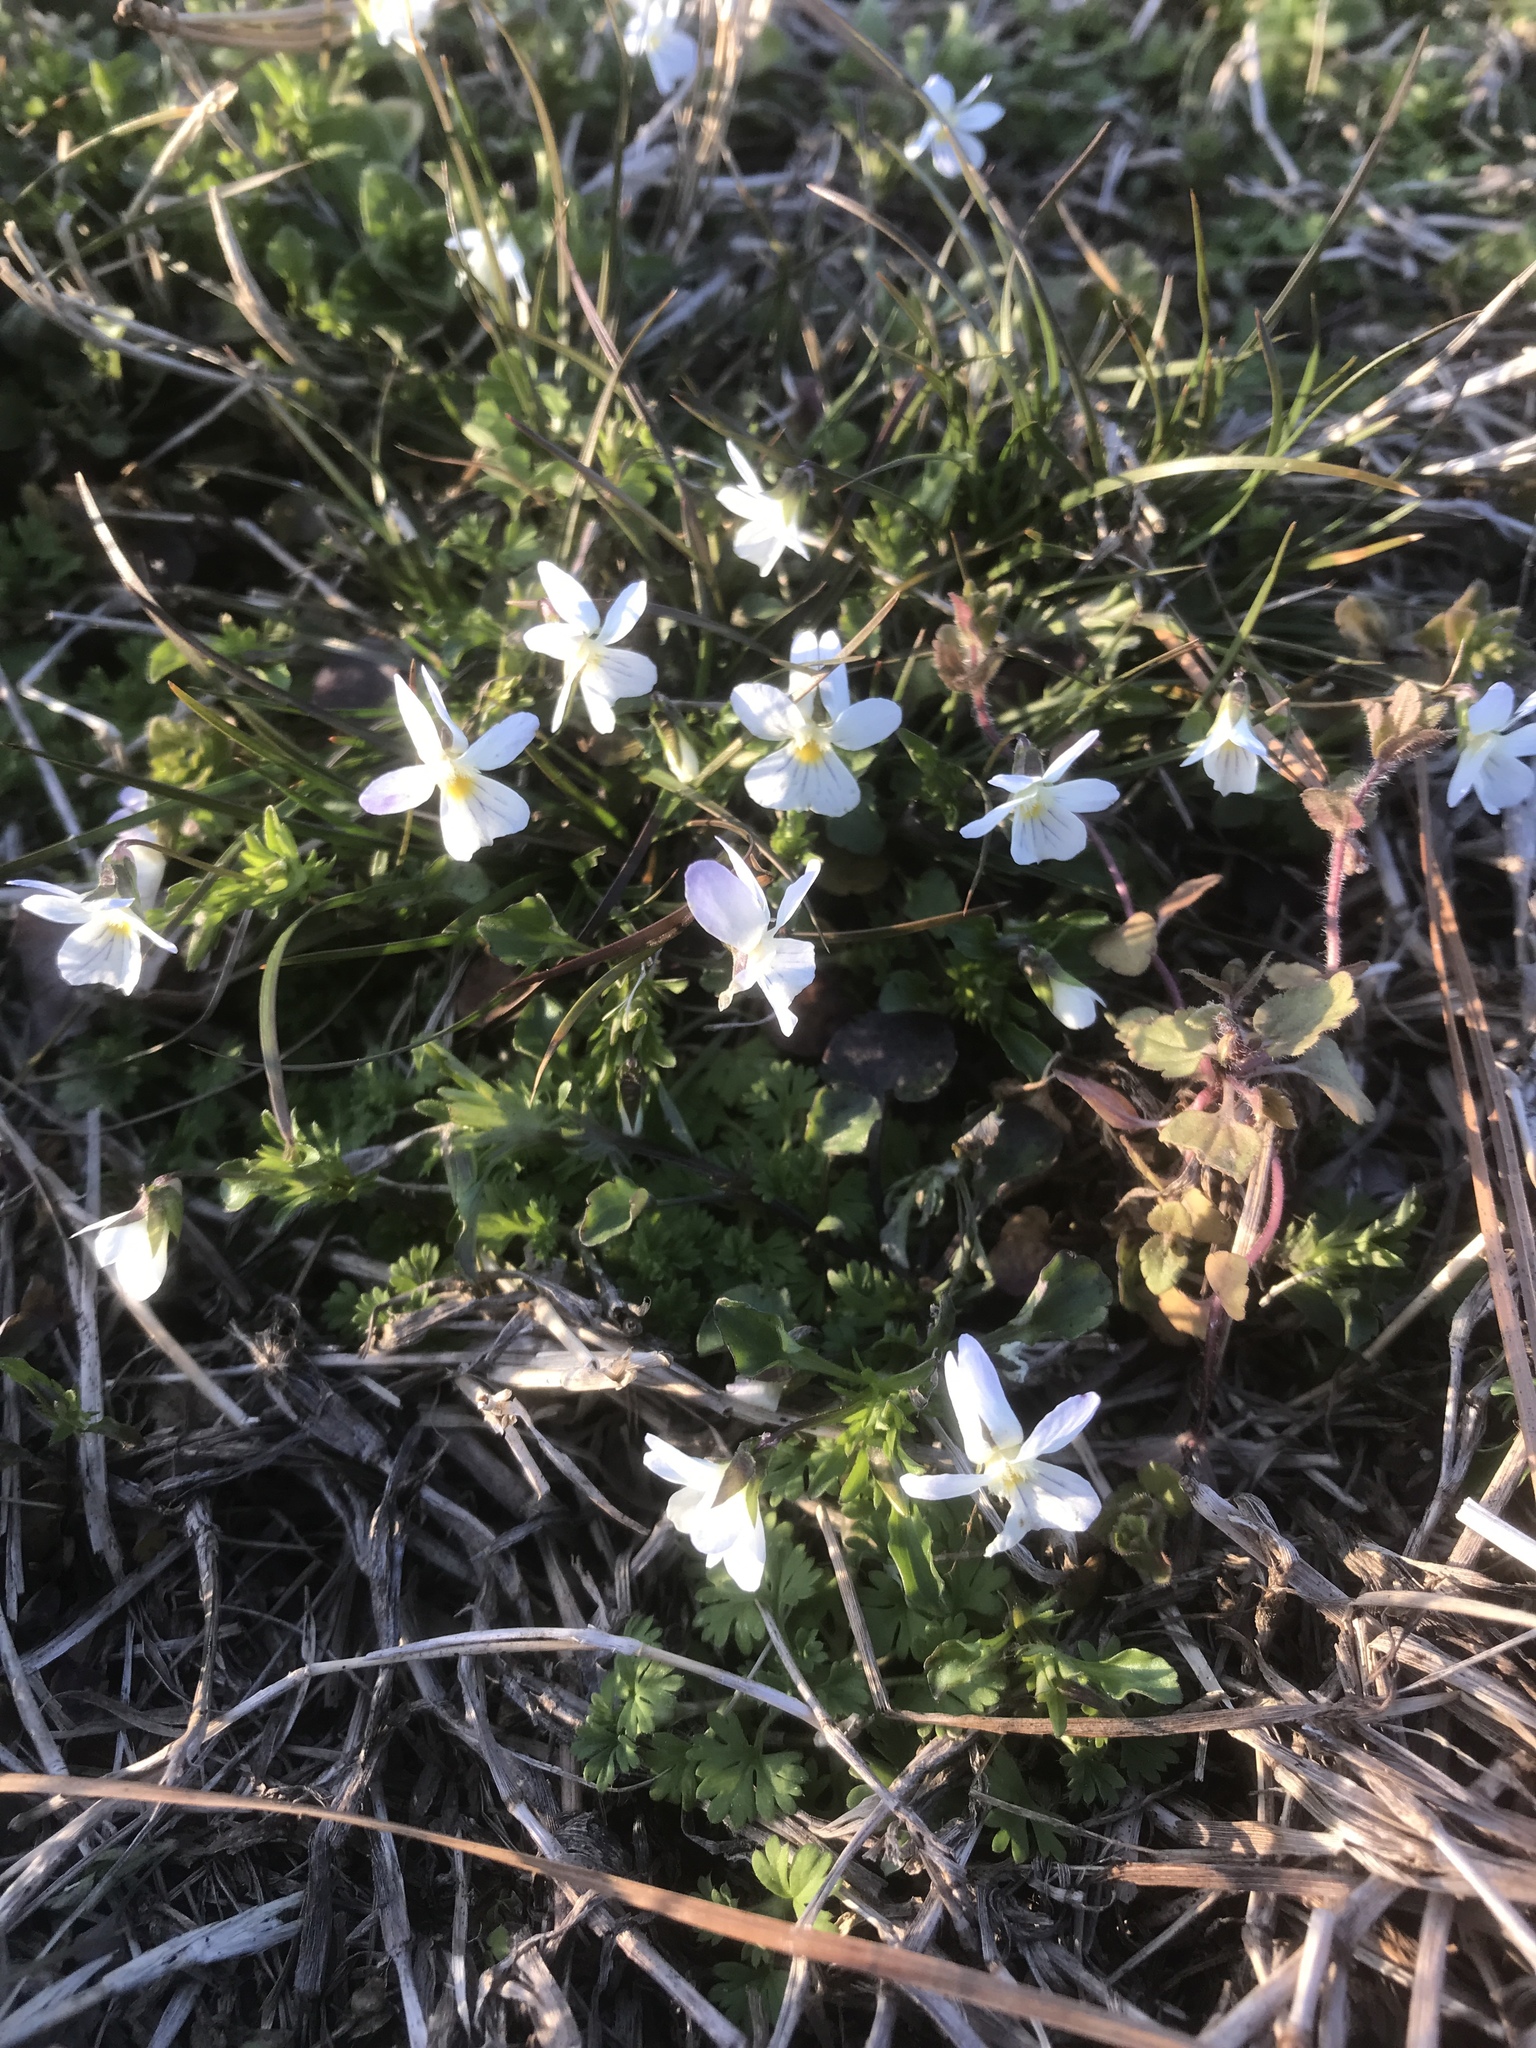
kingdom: Plantae
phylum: Tracheophyta
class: Magnoliopsida
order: Malpighiales
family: Violaceae
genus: Viola
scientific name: Viola rafinesquei
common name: American field pansy
